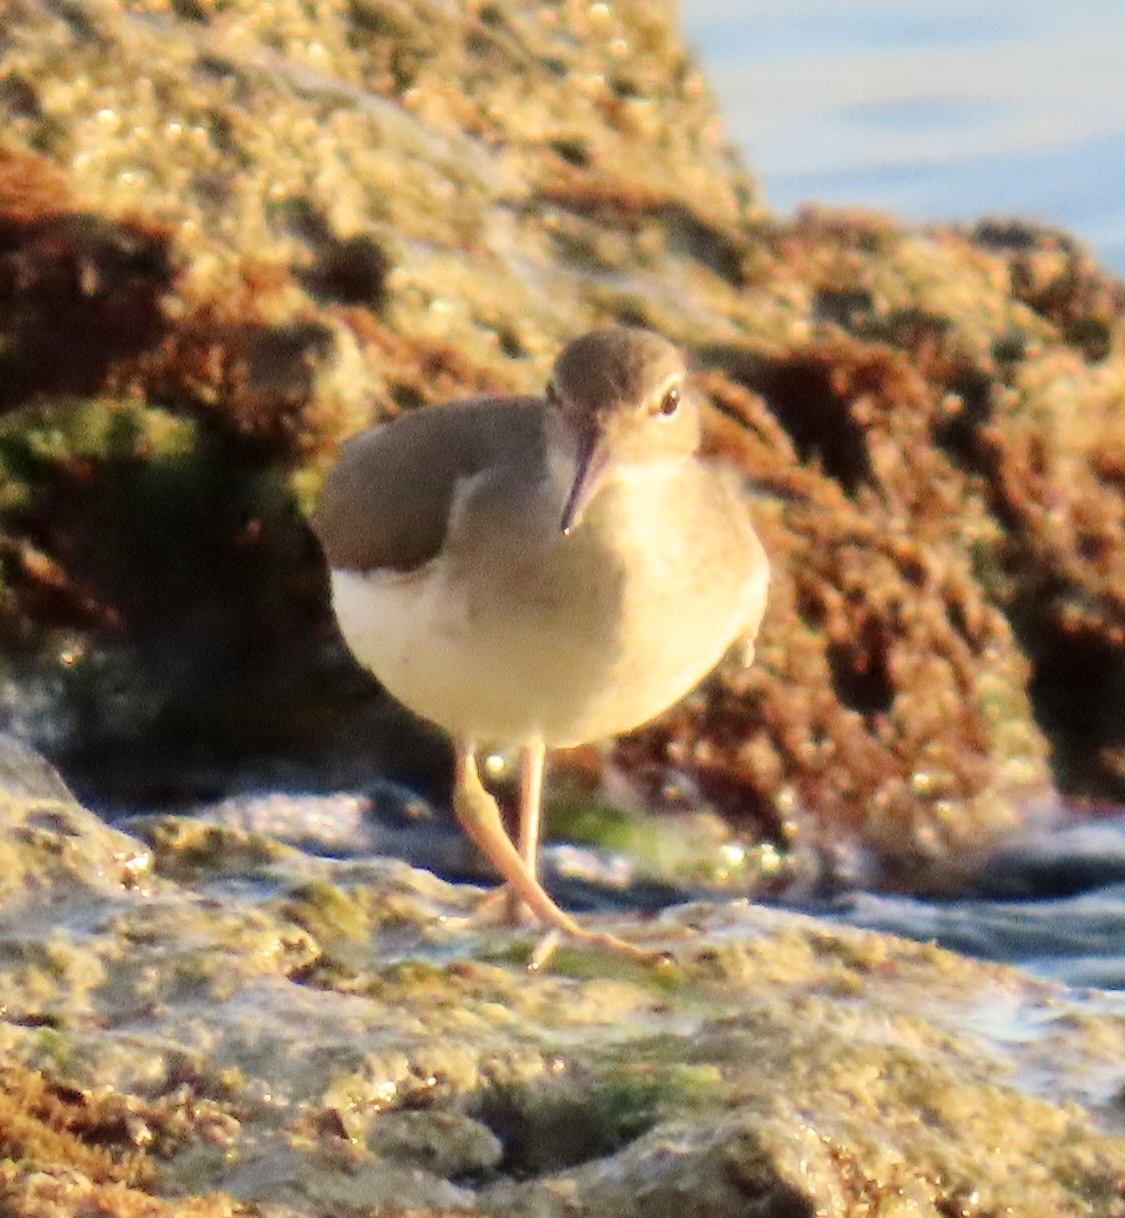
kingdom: Animalia
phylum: Chordata
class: Aves
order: Charadriiformes
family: Scolopacidae
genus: Actitis
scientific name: Actitis macularius
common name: Spotted sandpiper
